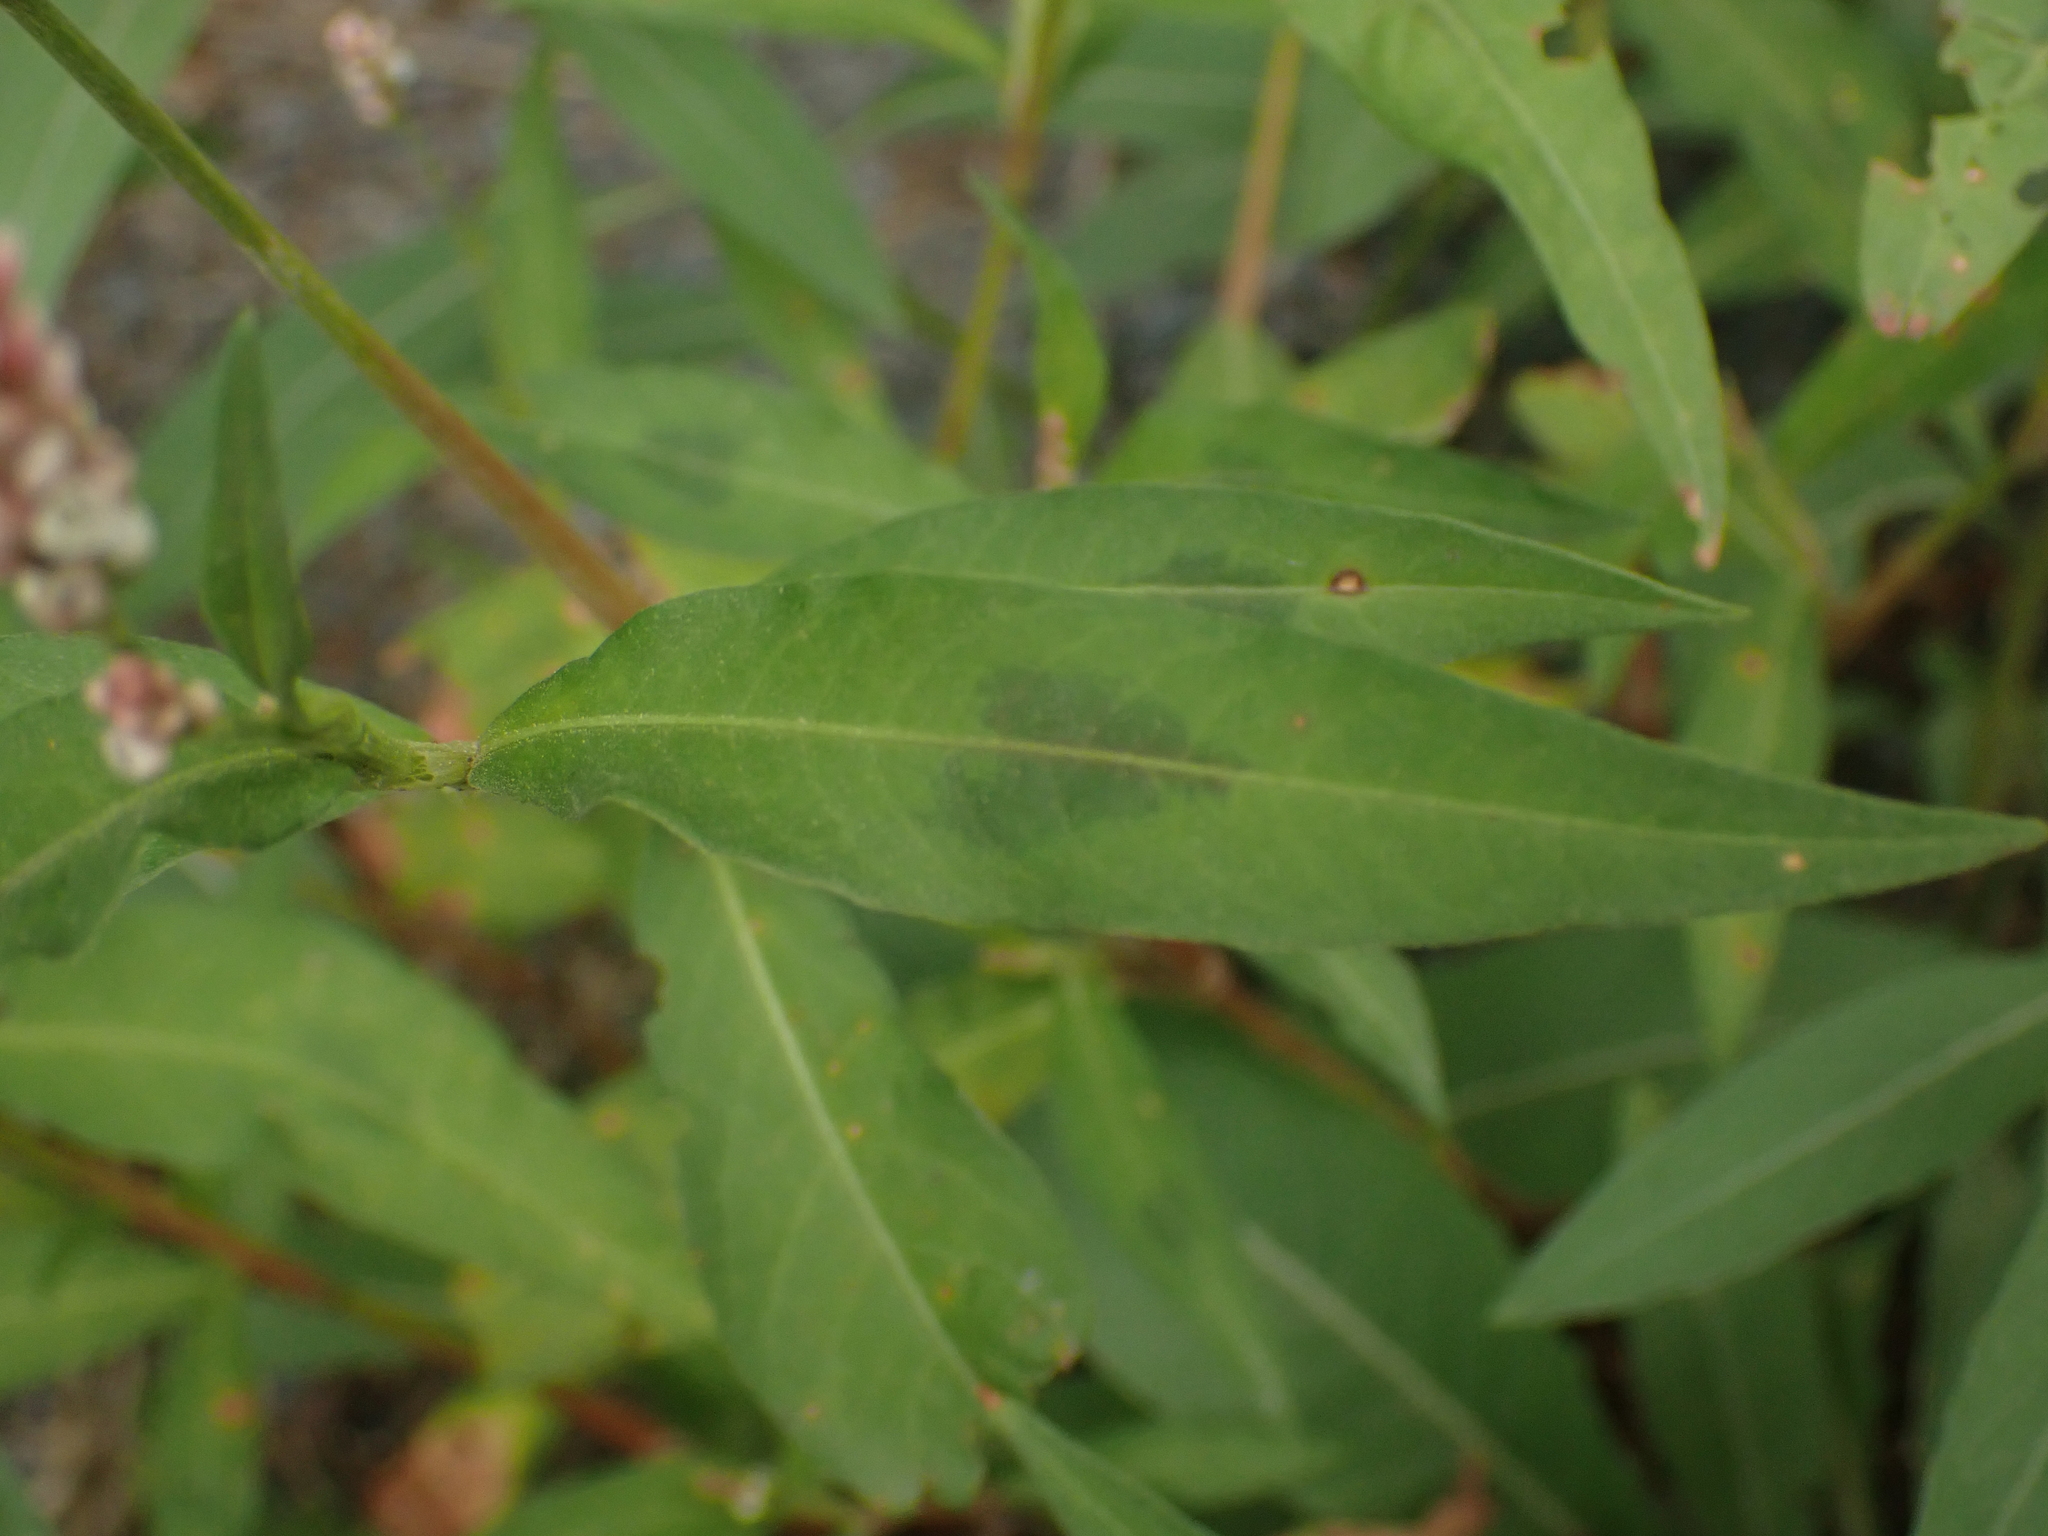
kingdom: Plantae
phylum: Tracheophyta
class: Magnoliopsida
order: Caryophyllales
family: Polygonaceae
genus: Persicaria
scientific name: Persicaria maculosa
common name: Redshank
